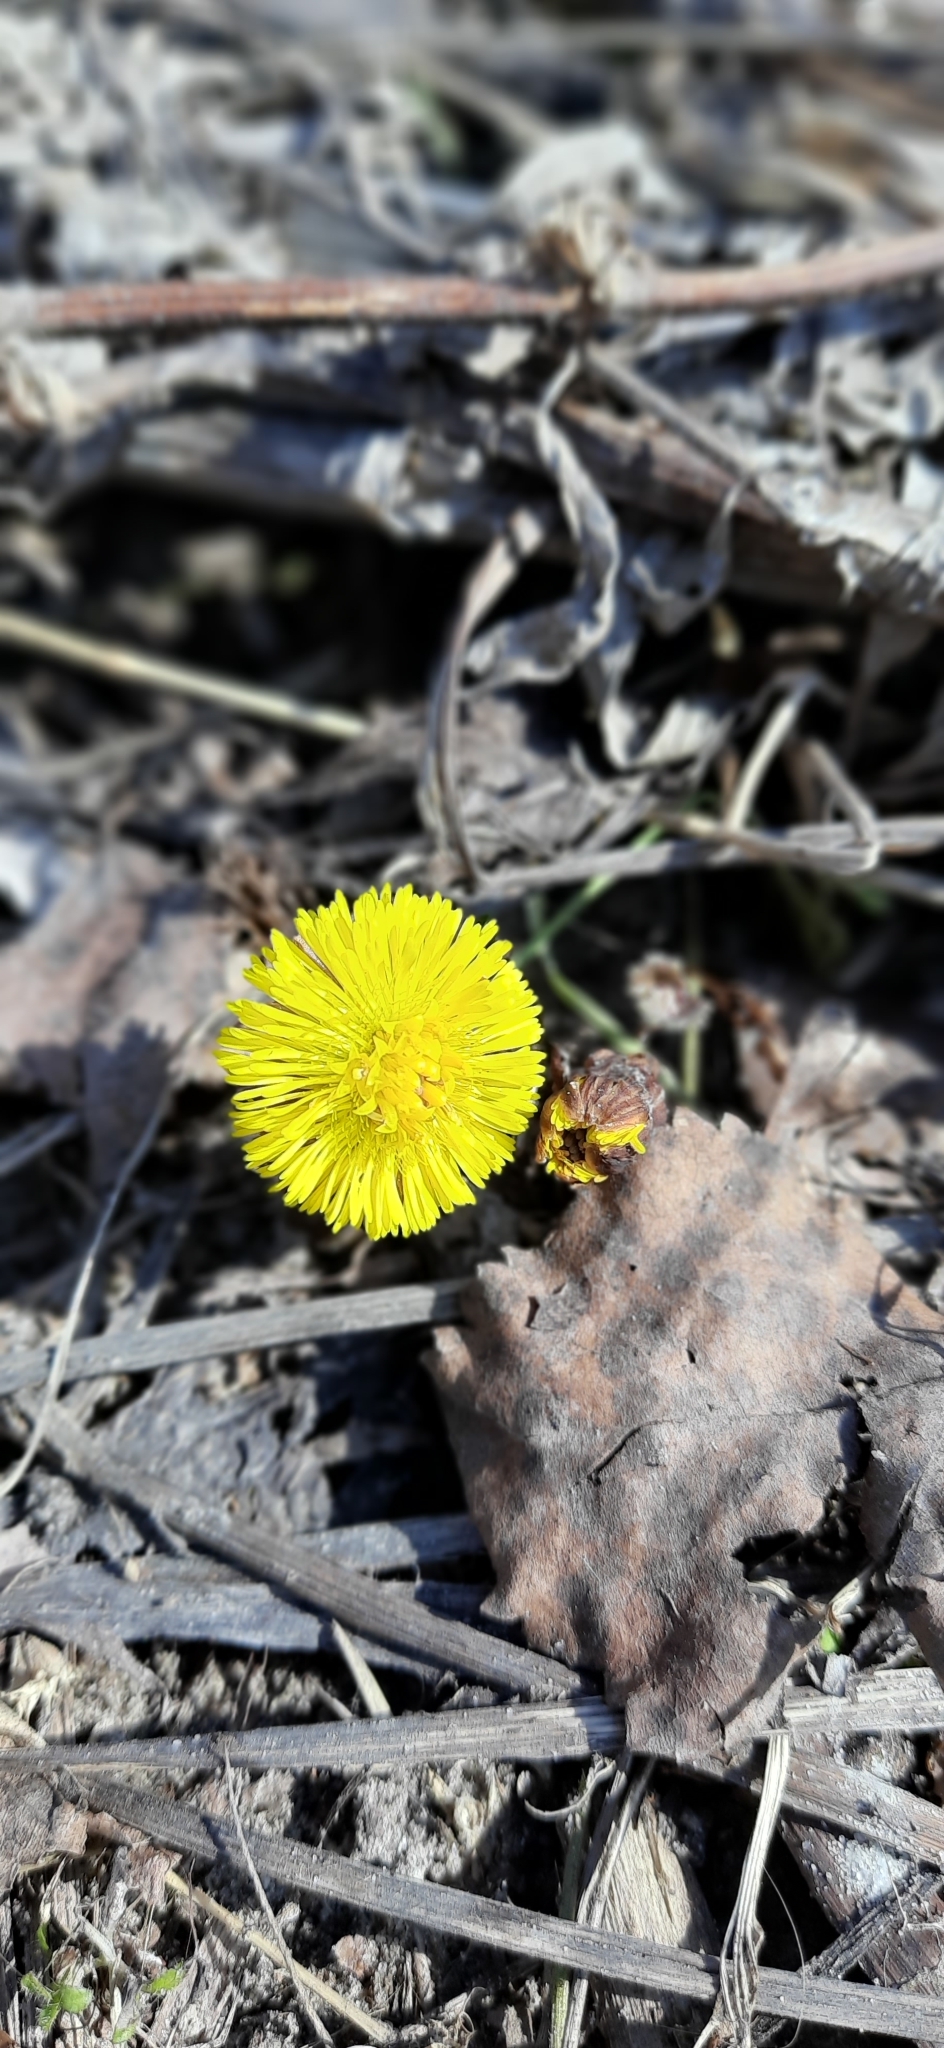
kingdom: Plantae
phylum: Tracheophyta
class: Magnoliopsida
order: Asterales
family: Asteraceae
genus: Tussilago
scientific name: Tussilago farfara
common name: Coltsfoot
